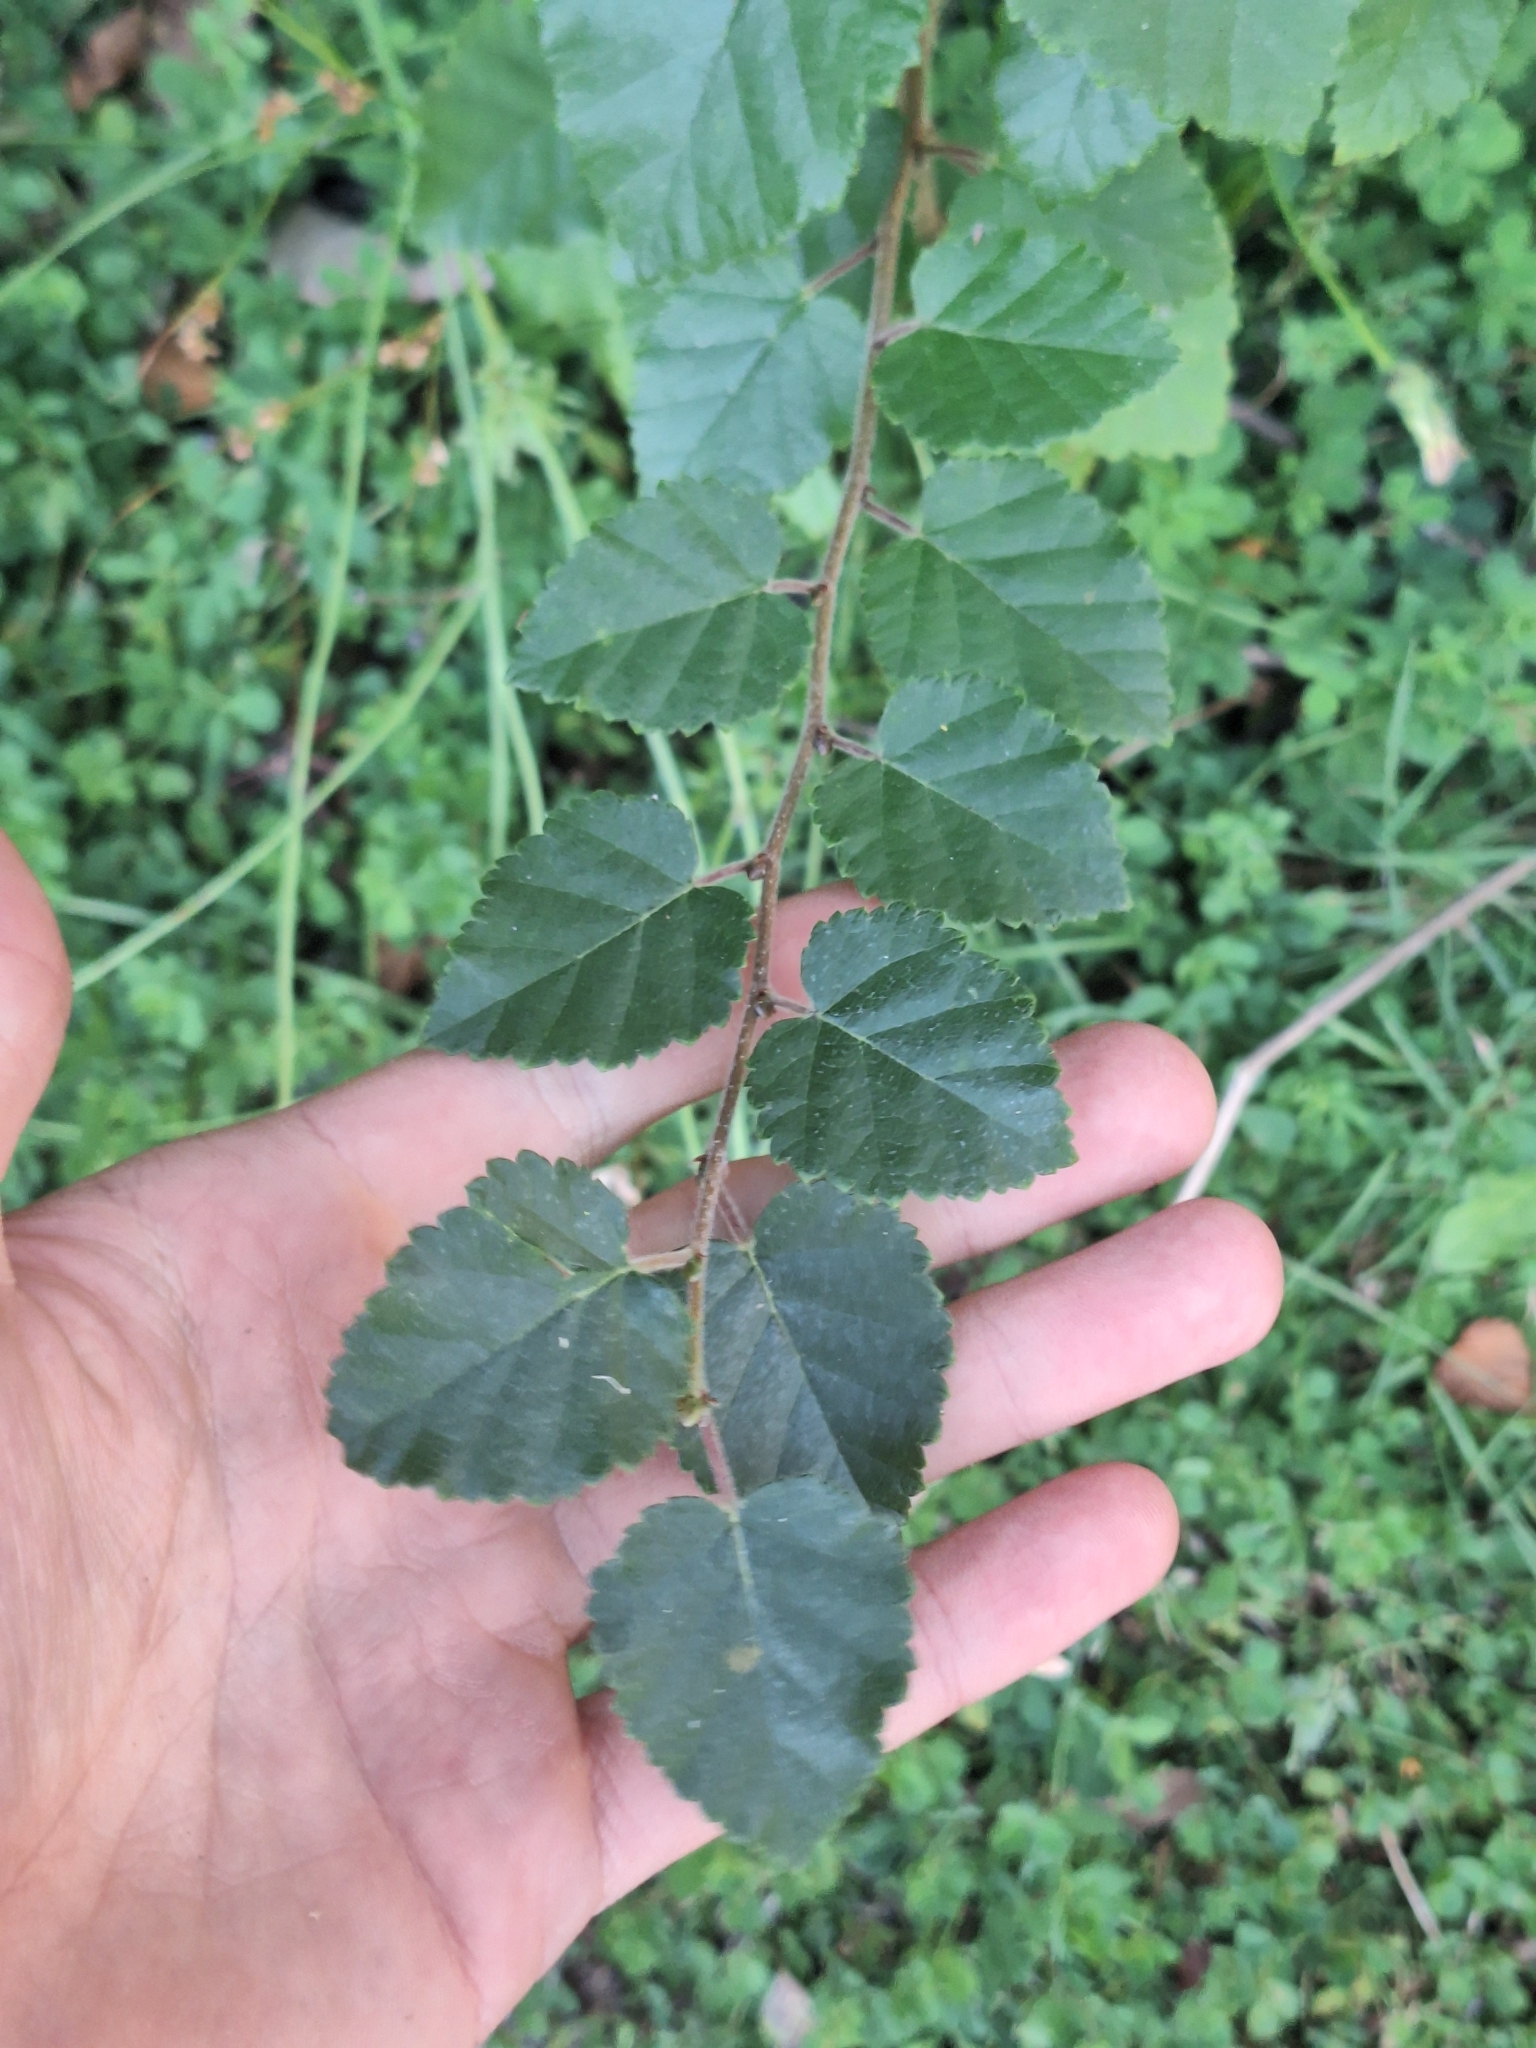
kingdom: Plantae
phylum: Tracheophyta
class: Magnoliopsida
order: Fagales
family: Betulaceae
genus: Betula
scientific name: Betula pendula
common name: Silver birch
